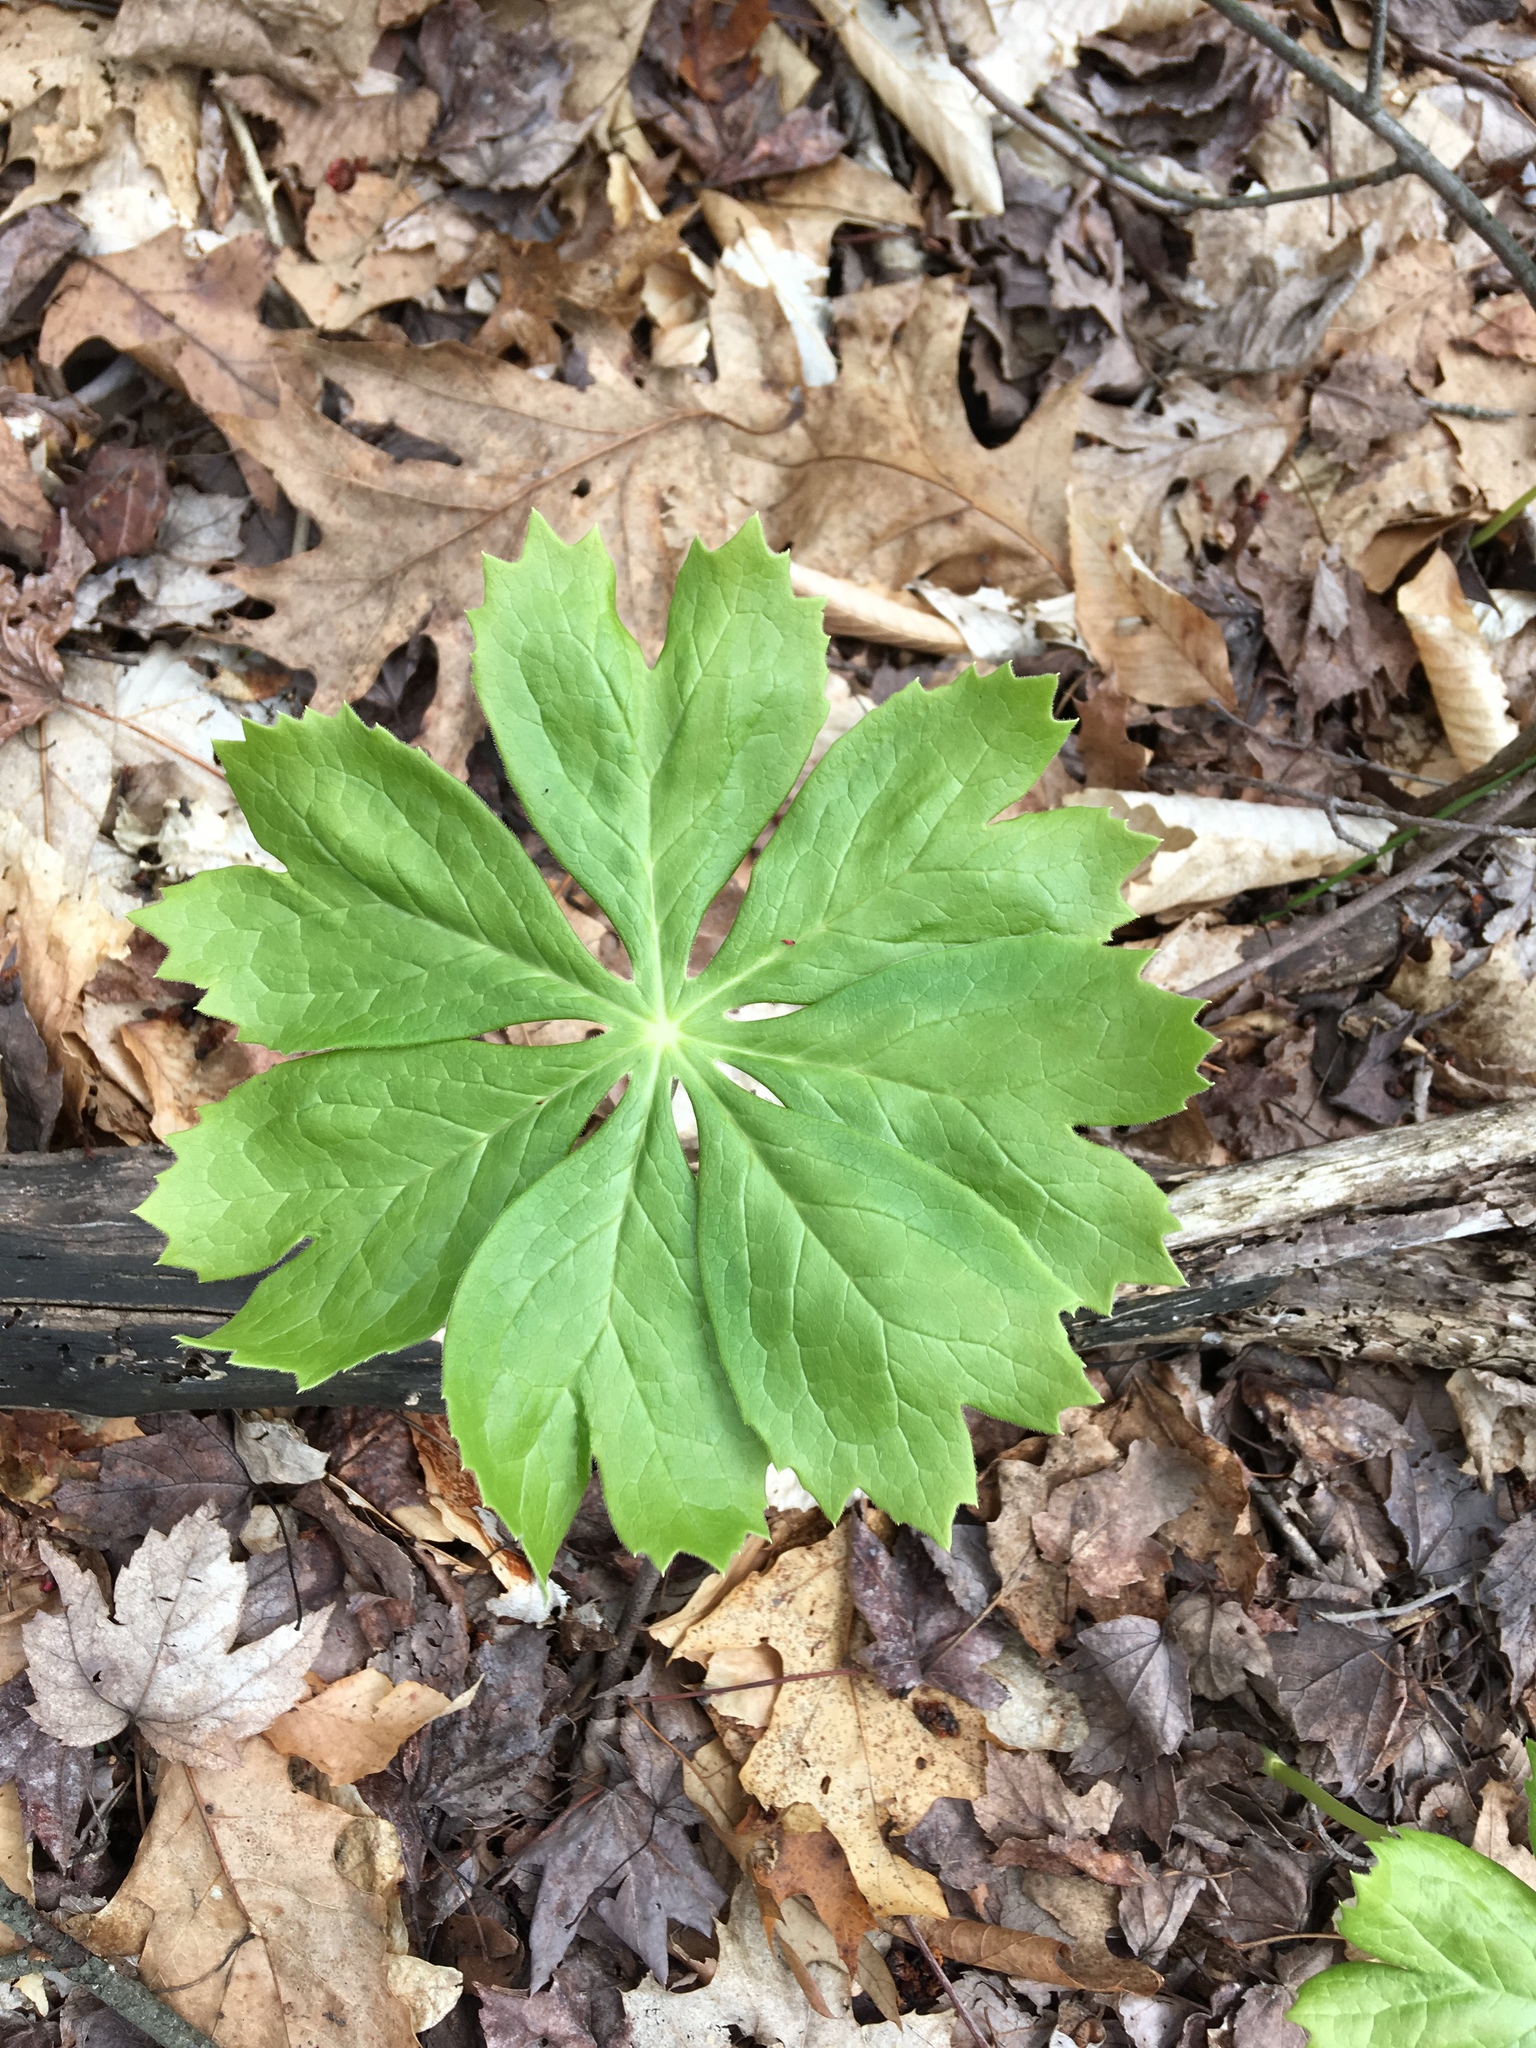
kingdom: Plantae
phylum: Tracheophyta
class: Magnoliopsida
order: Ranunculales
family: Berberidaceae
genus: Podophyllum
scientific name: Podophyllum peltatum
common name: Wild mandrake
